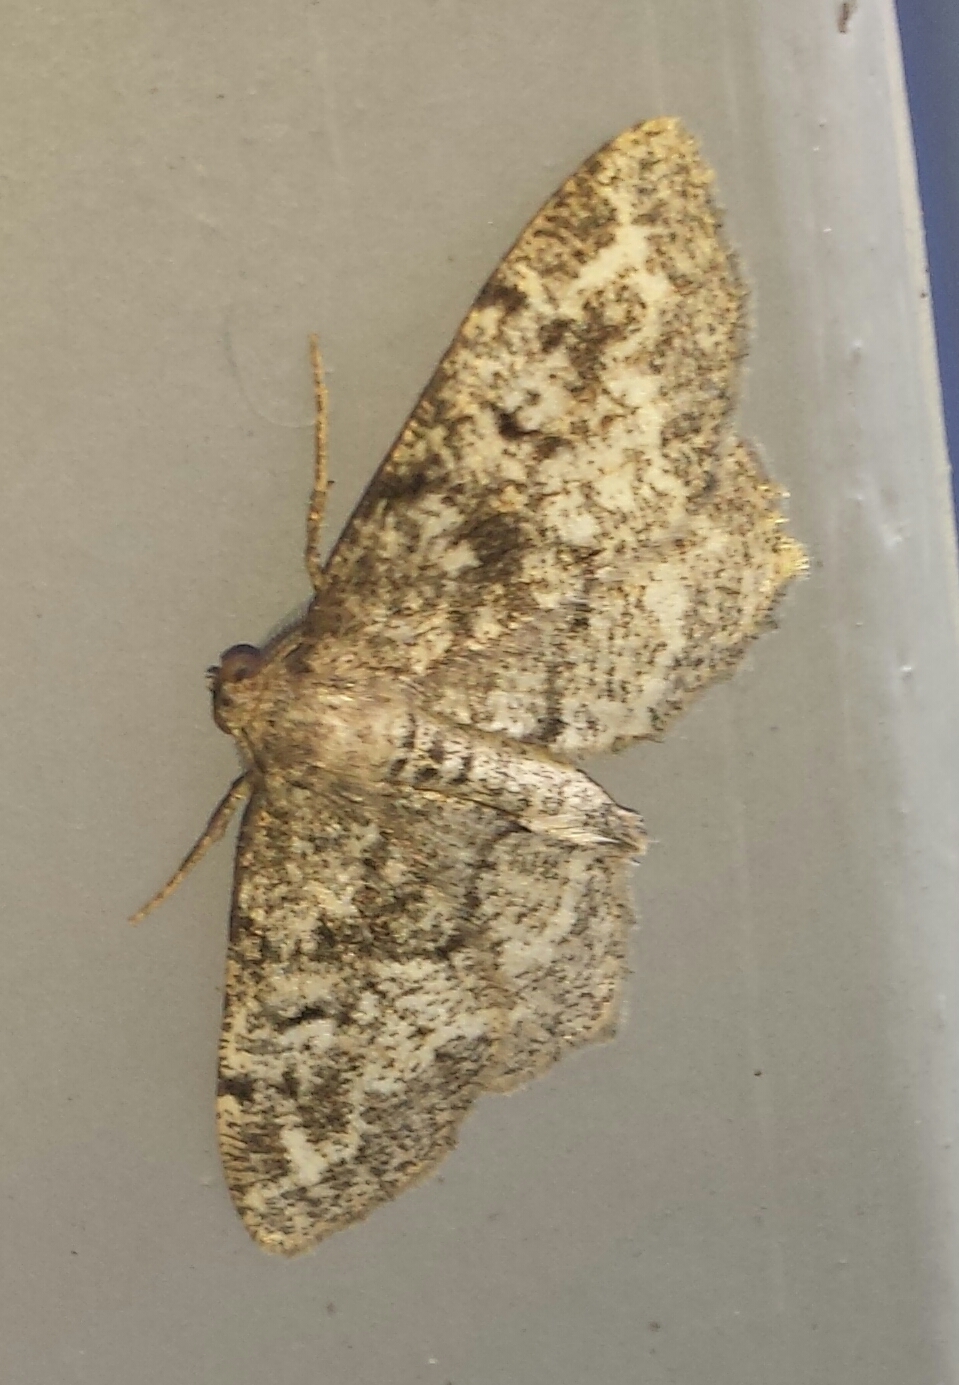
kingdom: Animalia
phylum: Arthropoda
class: Insecta
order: Lepidoptera
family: Geometridae
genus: Hypagyrtis
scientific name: Hypagyrtis unipunctata
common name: One-spotted variant
